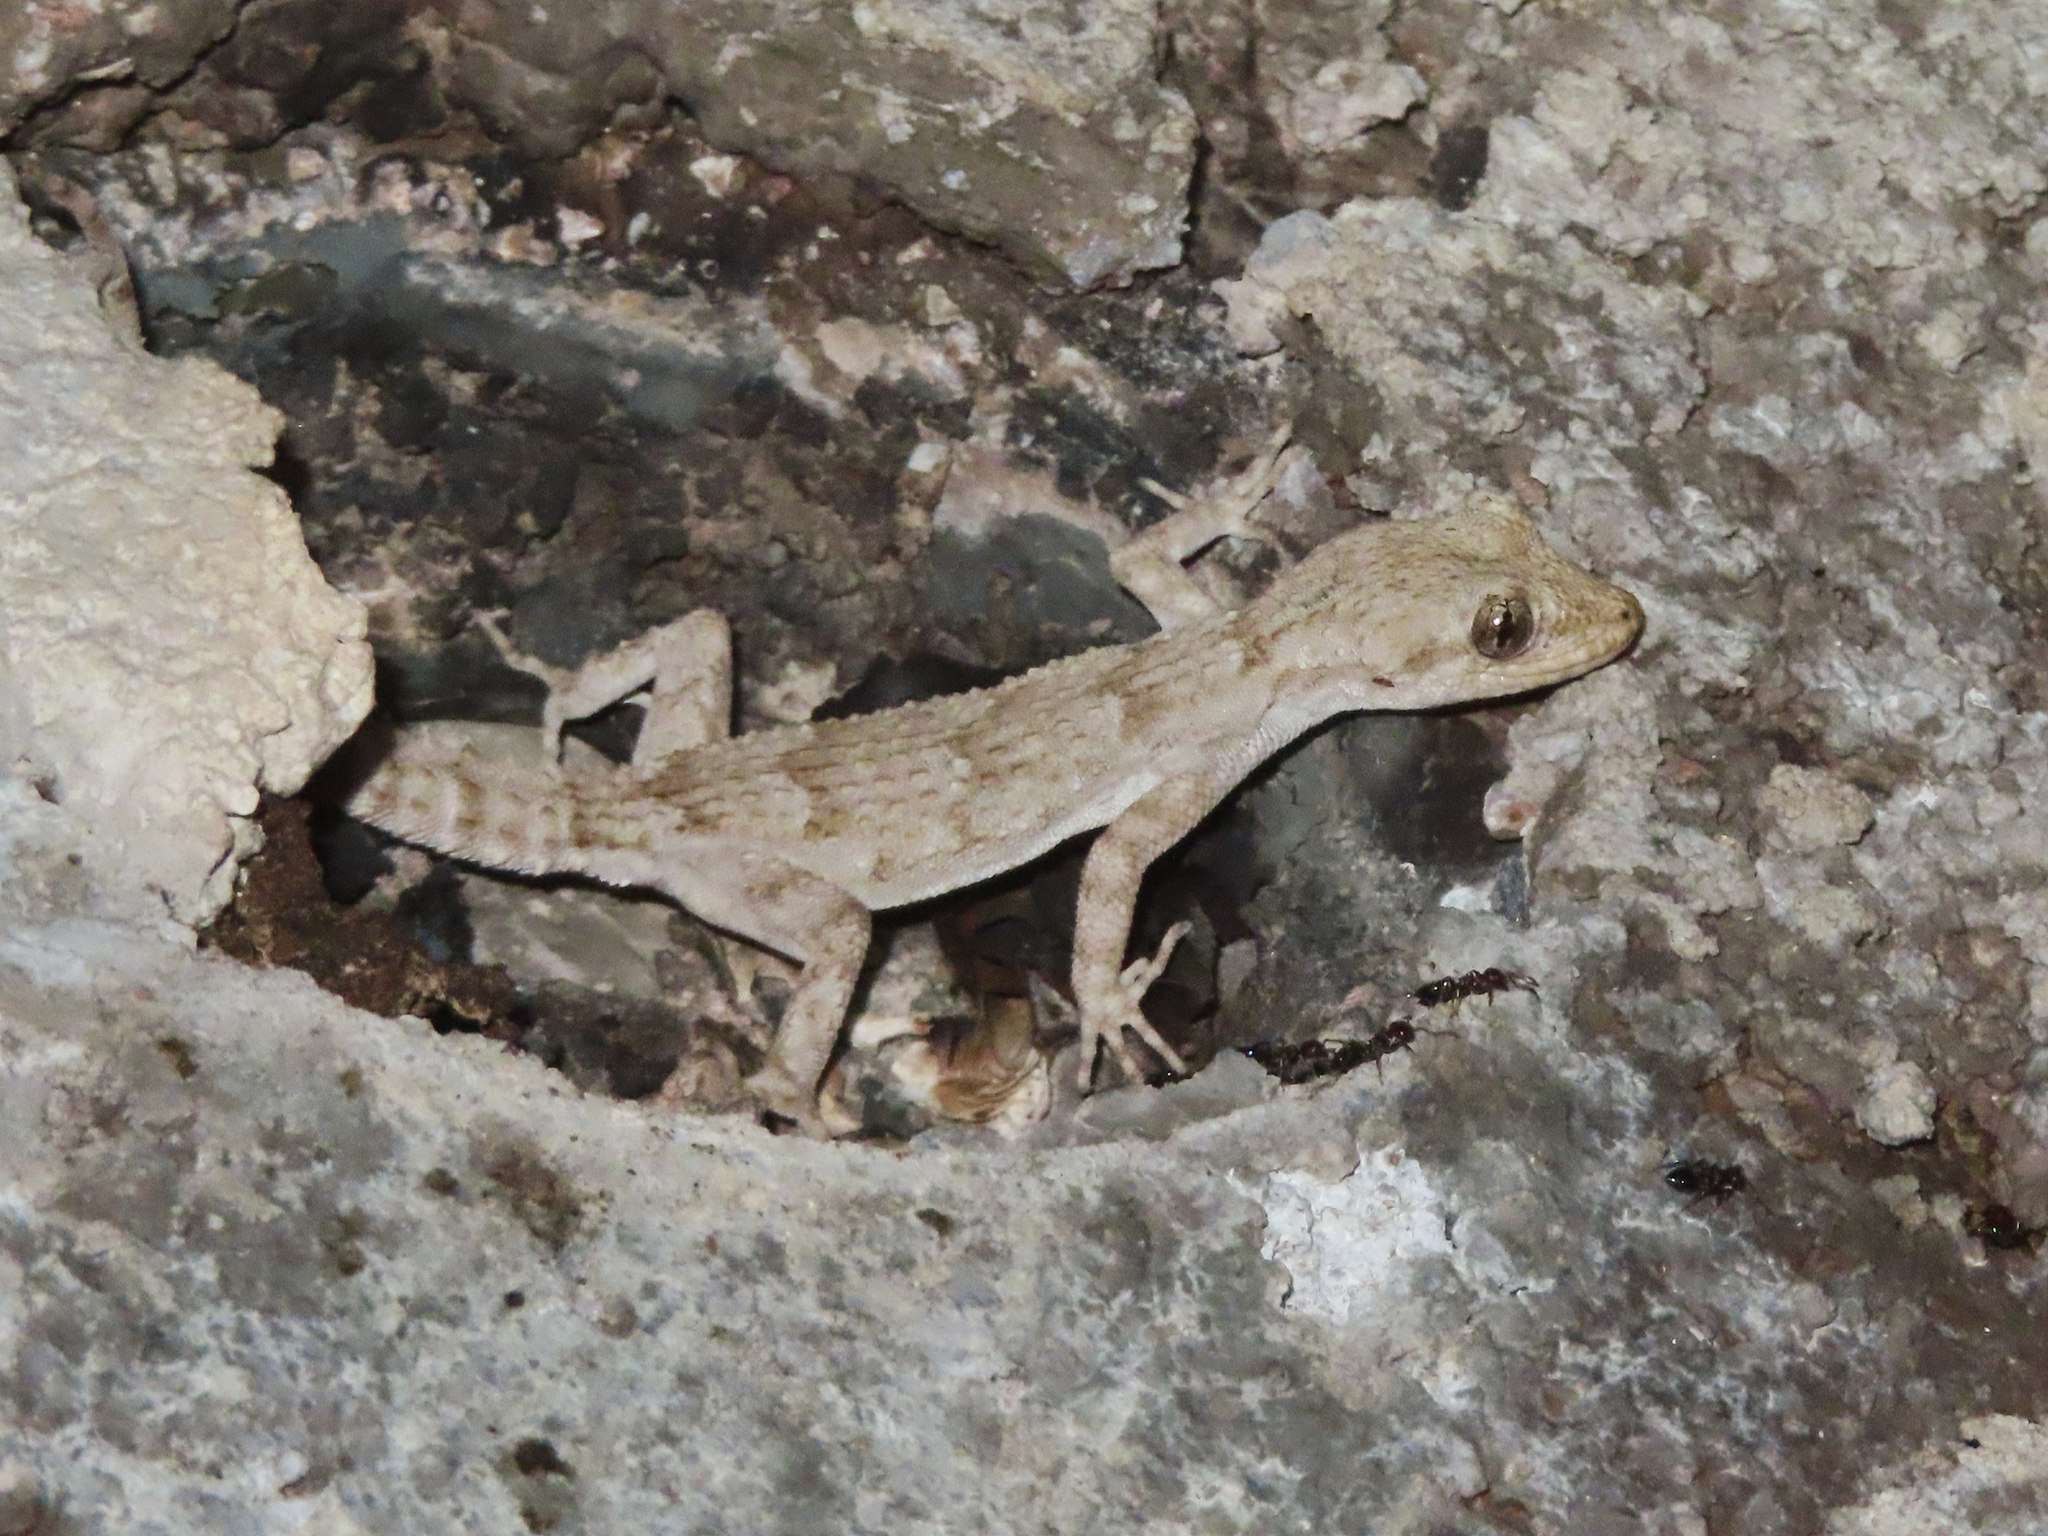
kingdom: Animalia
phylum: Chordata
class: Squamata
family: Gekkonidae
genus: Mediodactylus
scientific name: Mediodactylus kotschyi
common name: Kotschy's gecko
